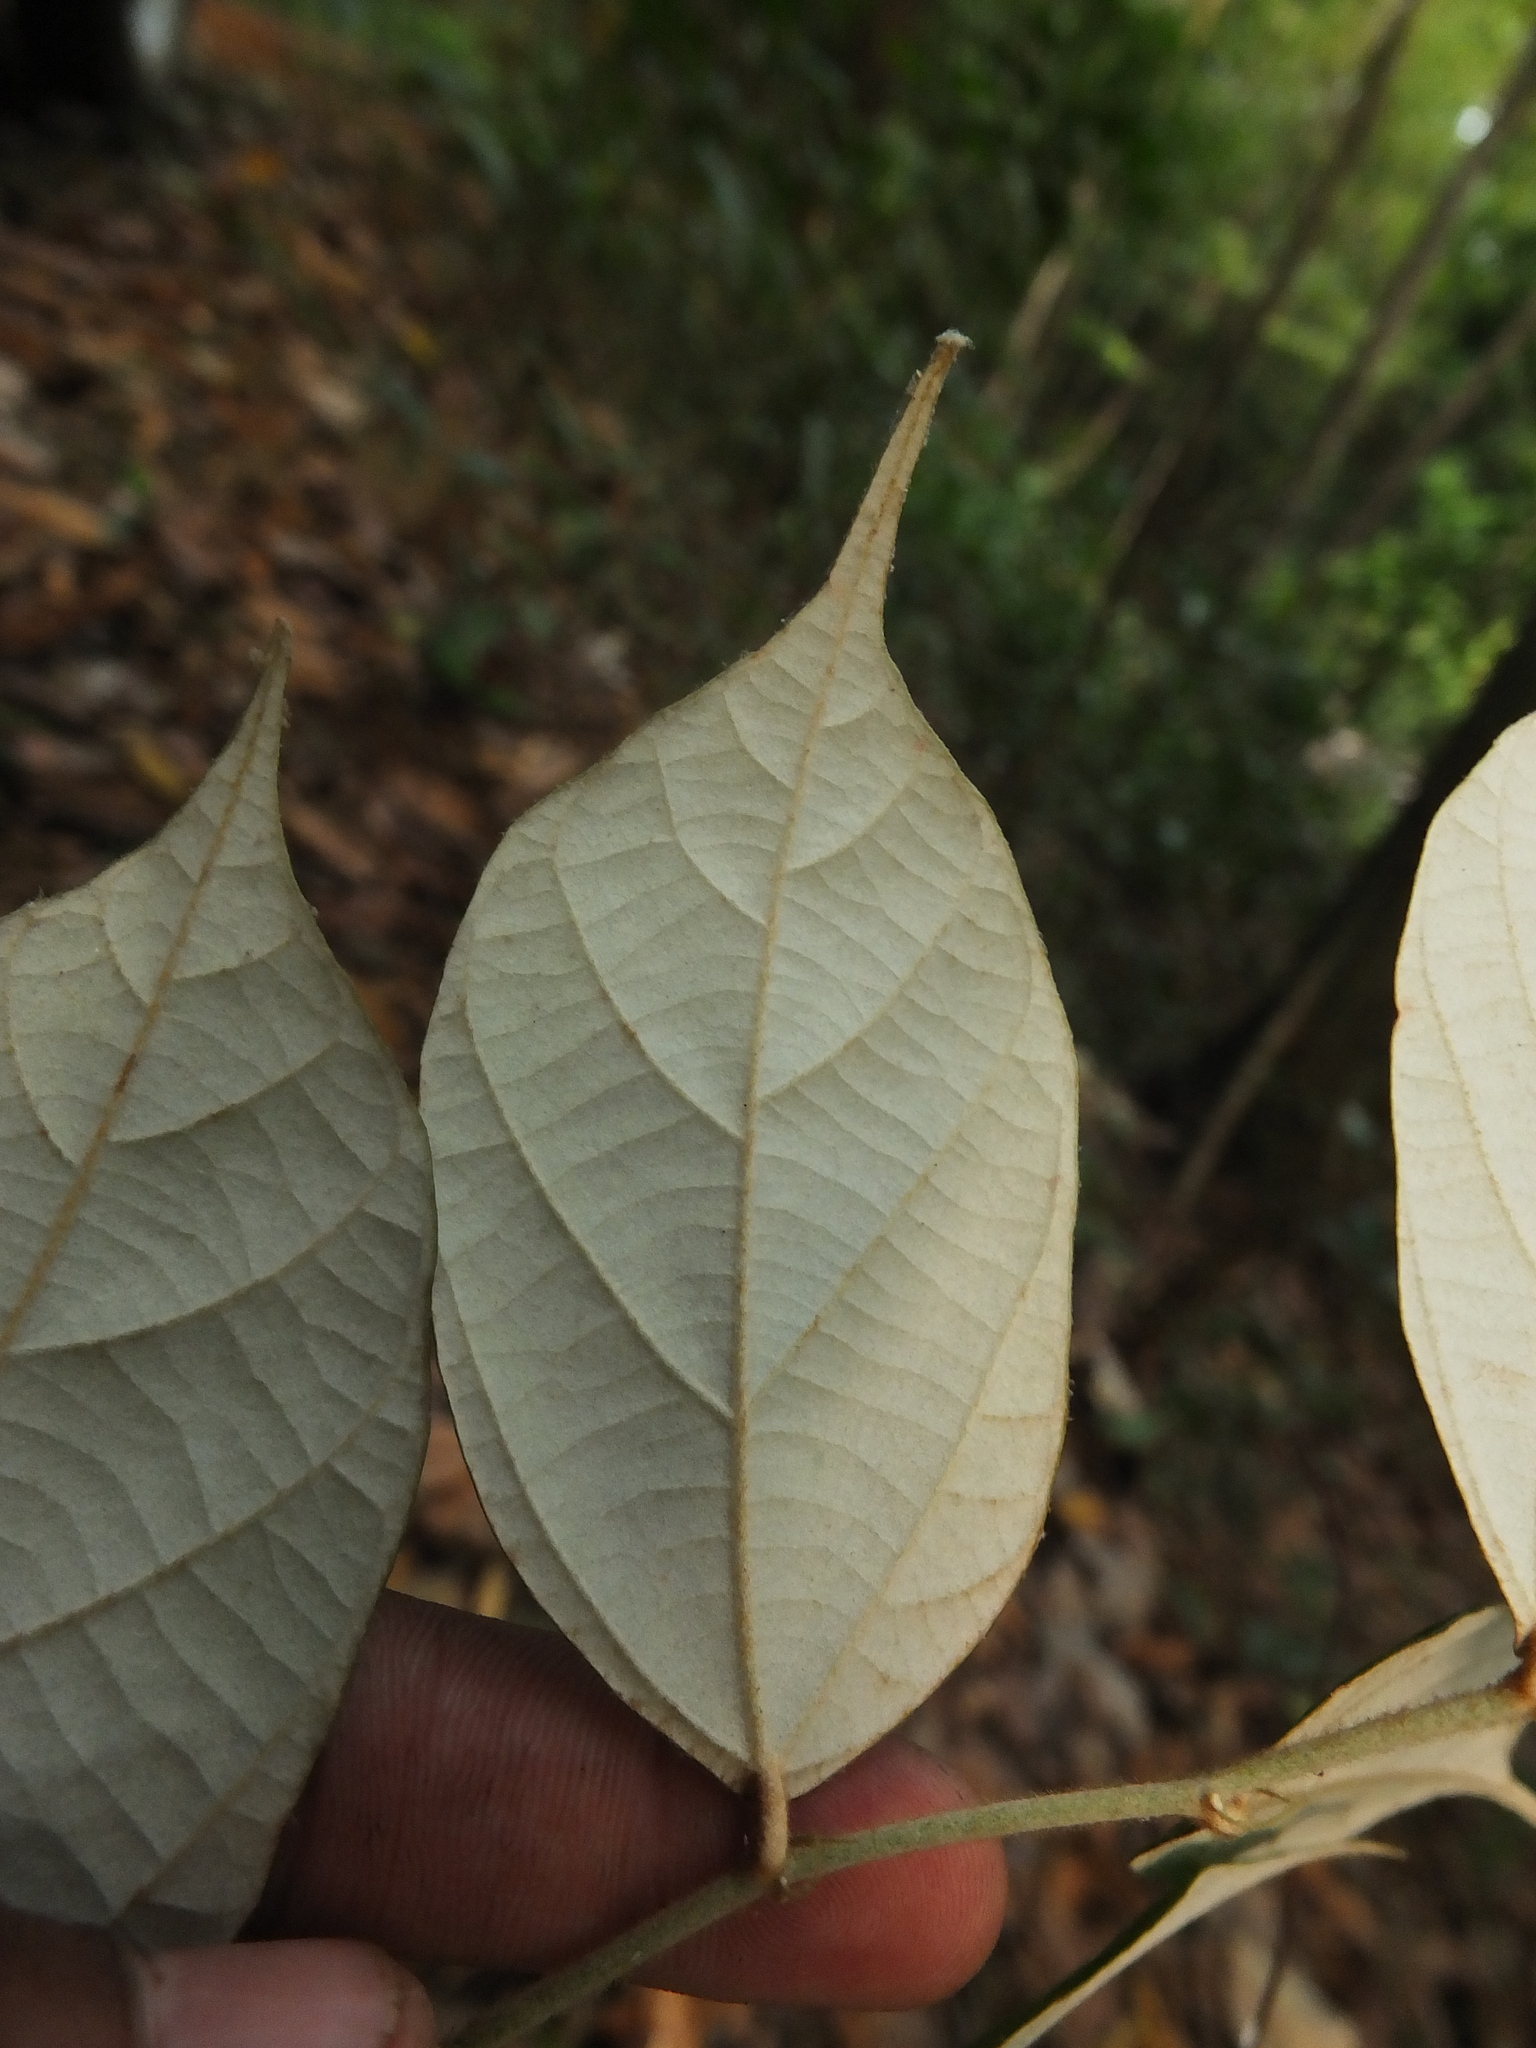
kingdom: Plantae
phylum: Tracheophyta
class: Magnoliopsida
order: Malvales
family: Malvaceae
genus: Pterospermum
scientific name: Pterospermum reticulatum
